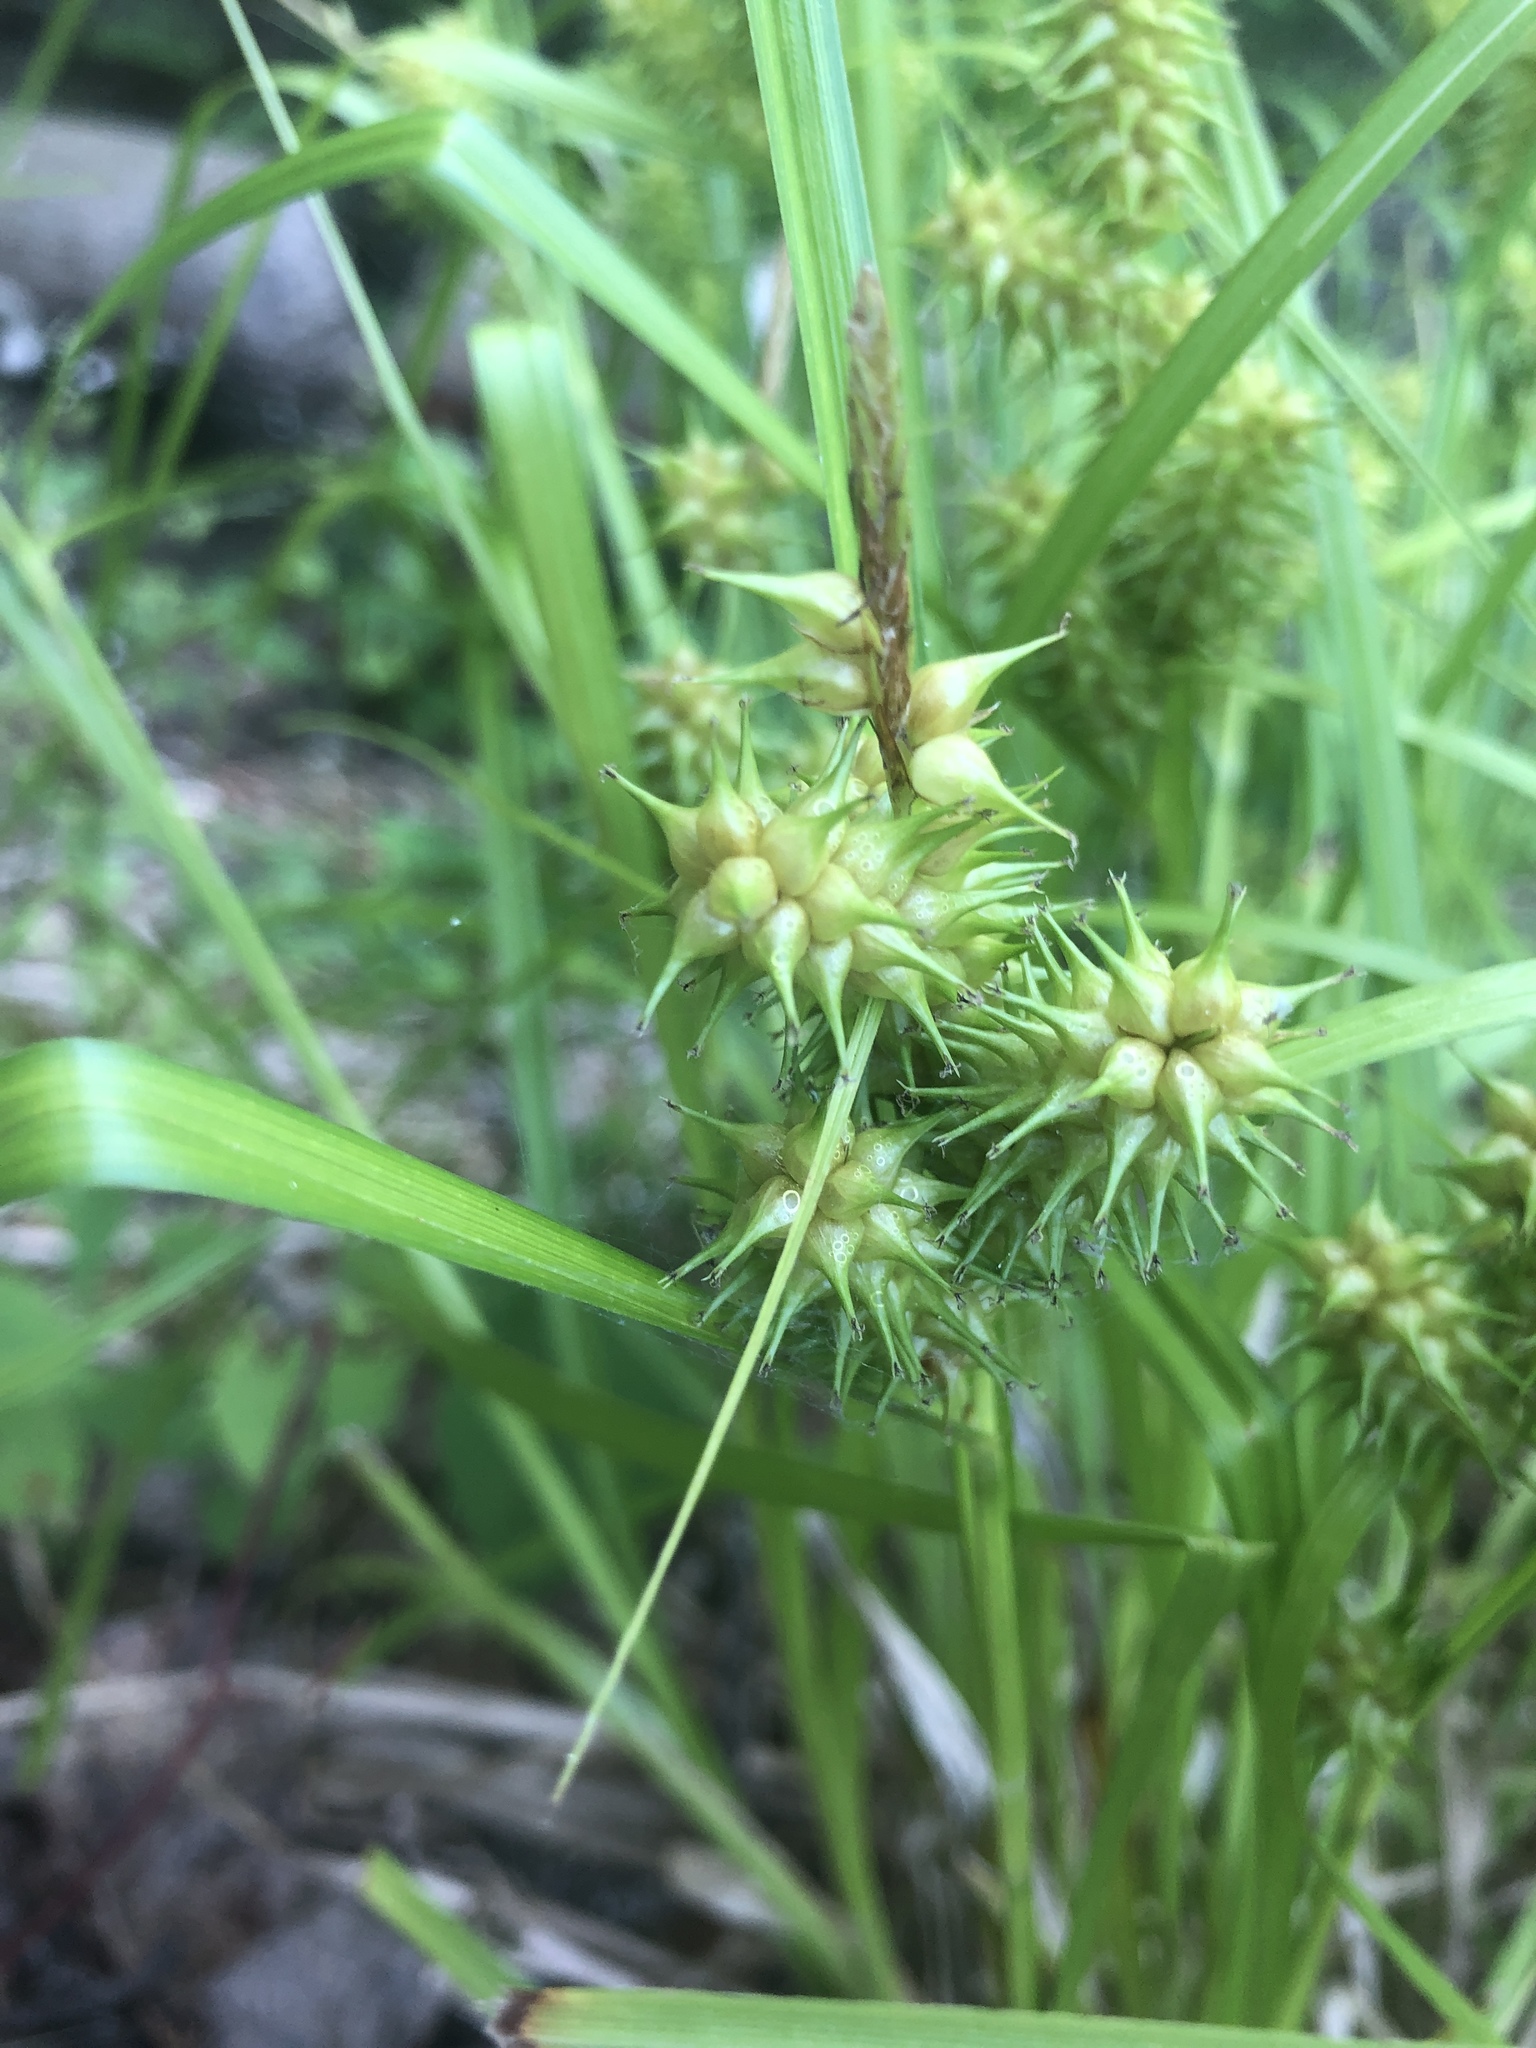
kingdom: Plantae
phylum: Tracheophyta
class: Liliopsida
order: Poales
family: Cyperaceae
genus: Carex
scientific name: Carex retrorsa
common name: Knot-sheath sedge
